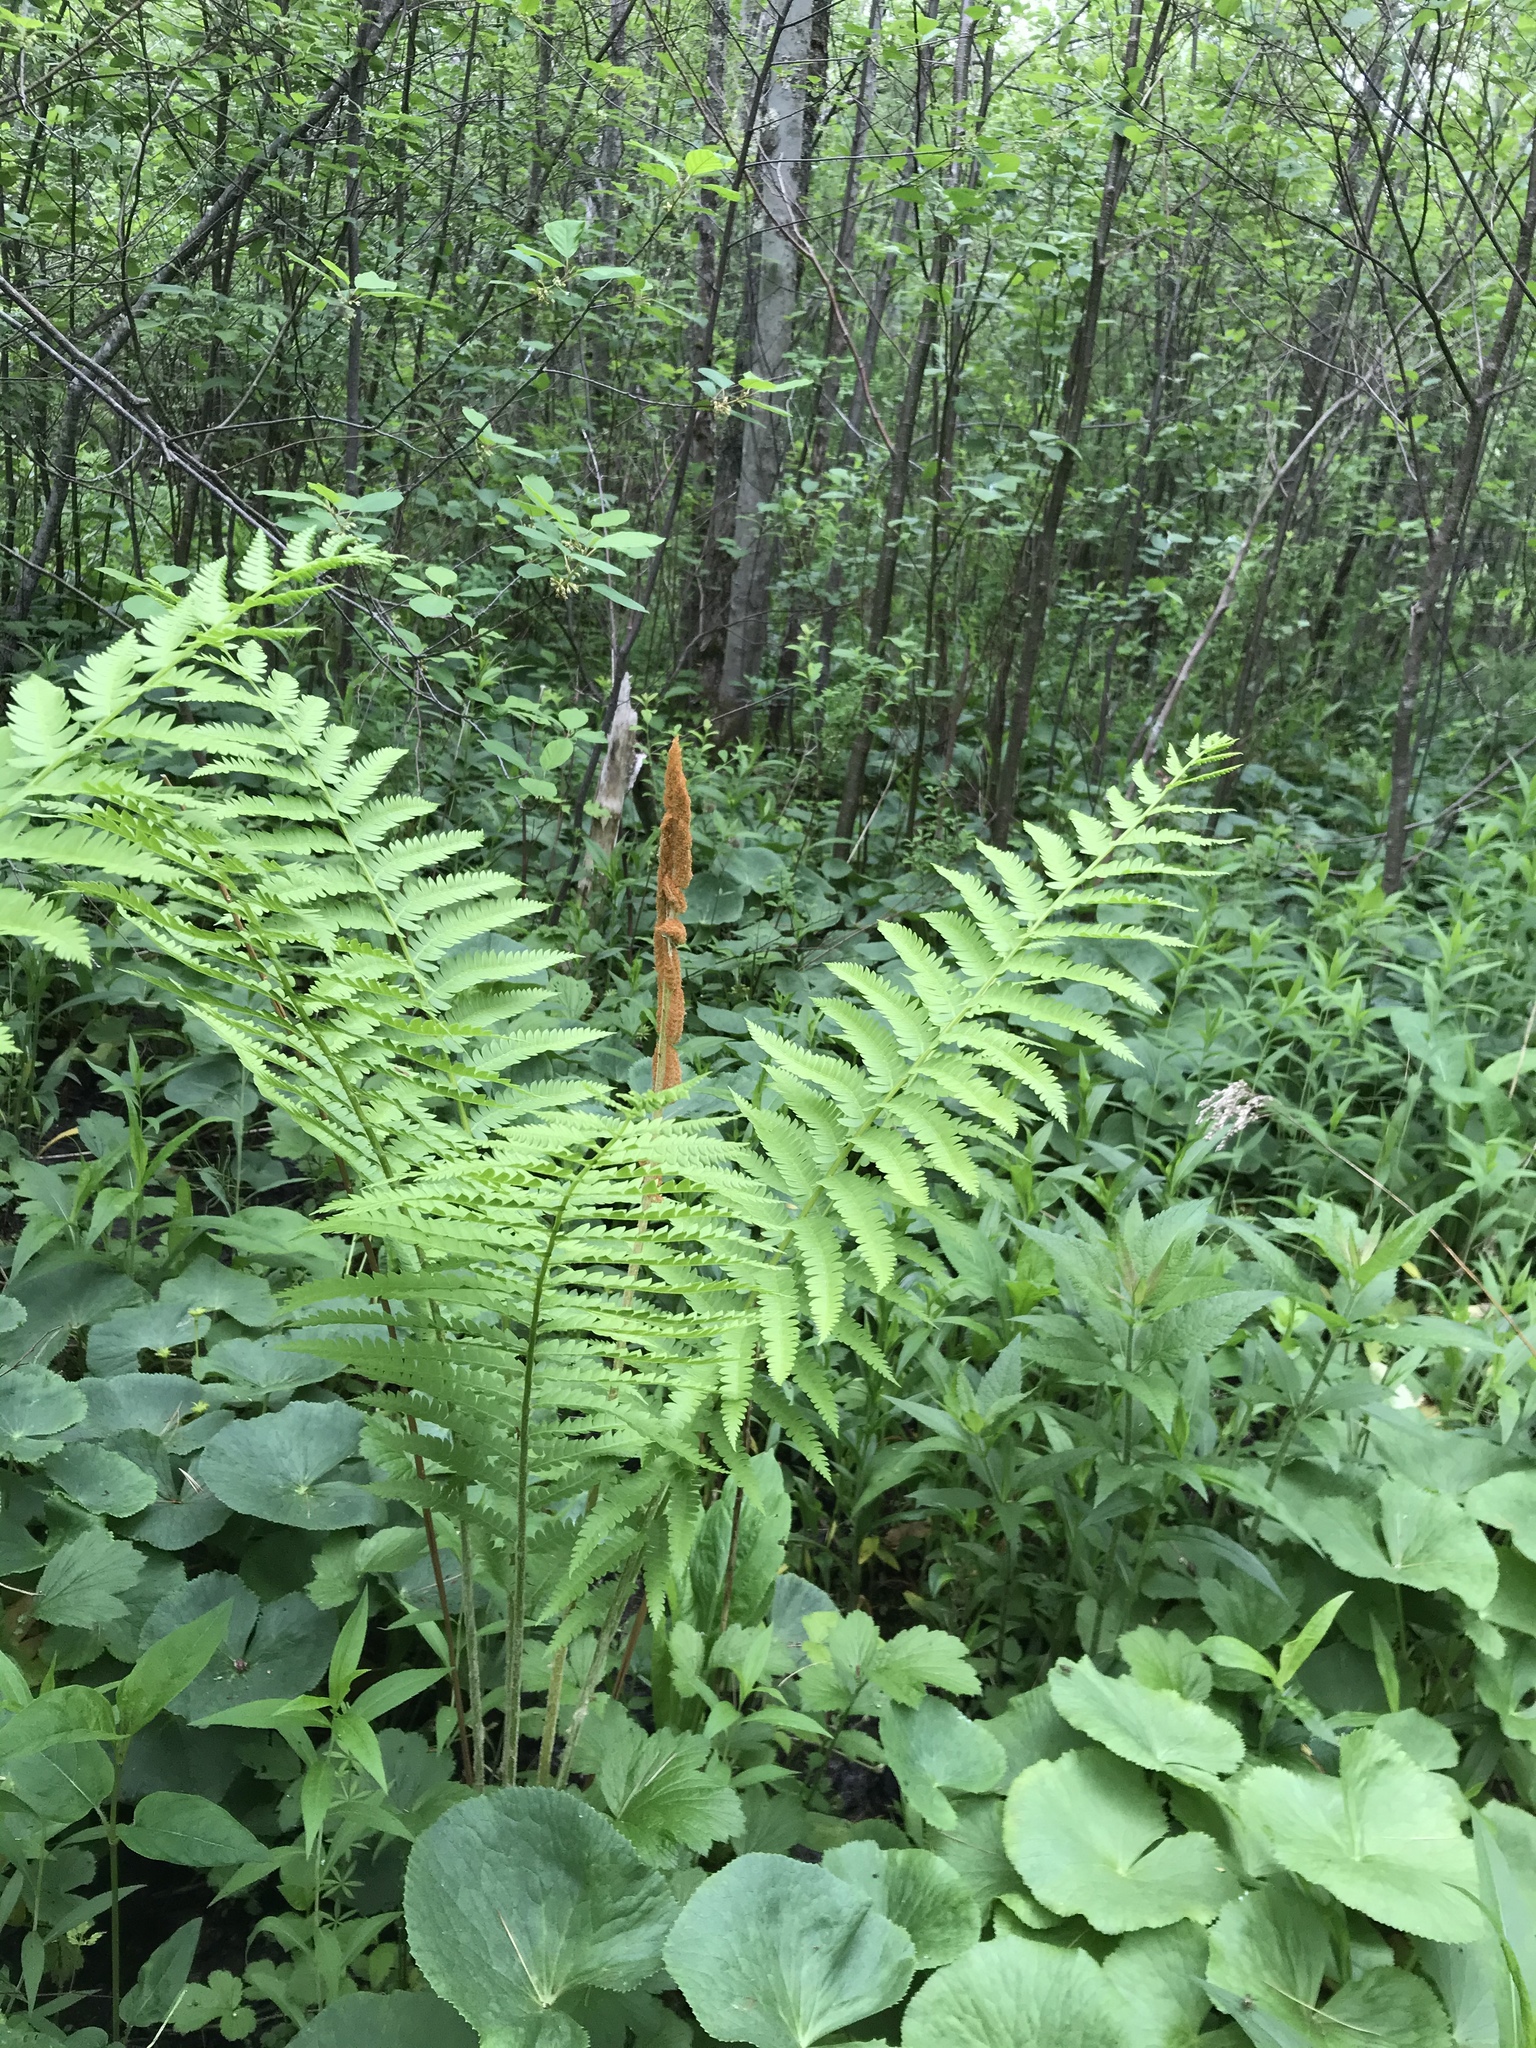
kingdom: Plantae
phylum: Tracheophyta
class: Polypodiopsida
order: Osmundales
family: Osmundaceae
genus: Osmundastrum
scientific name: Osmundastrum cinnamomeum
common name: Cinnamon fern
